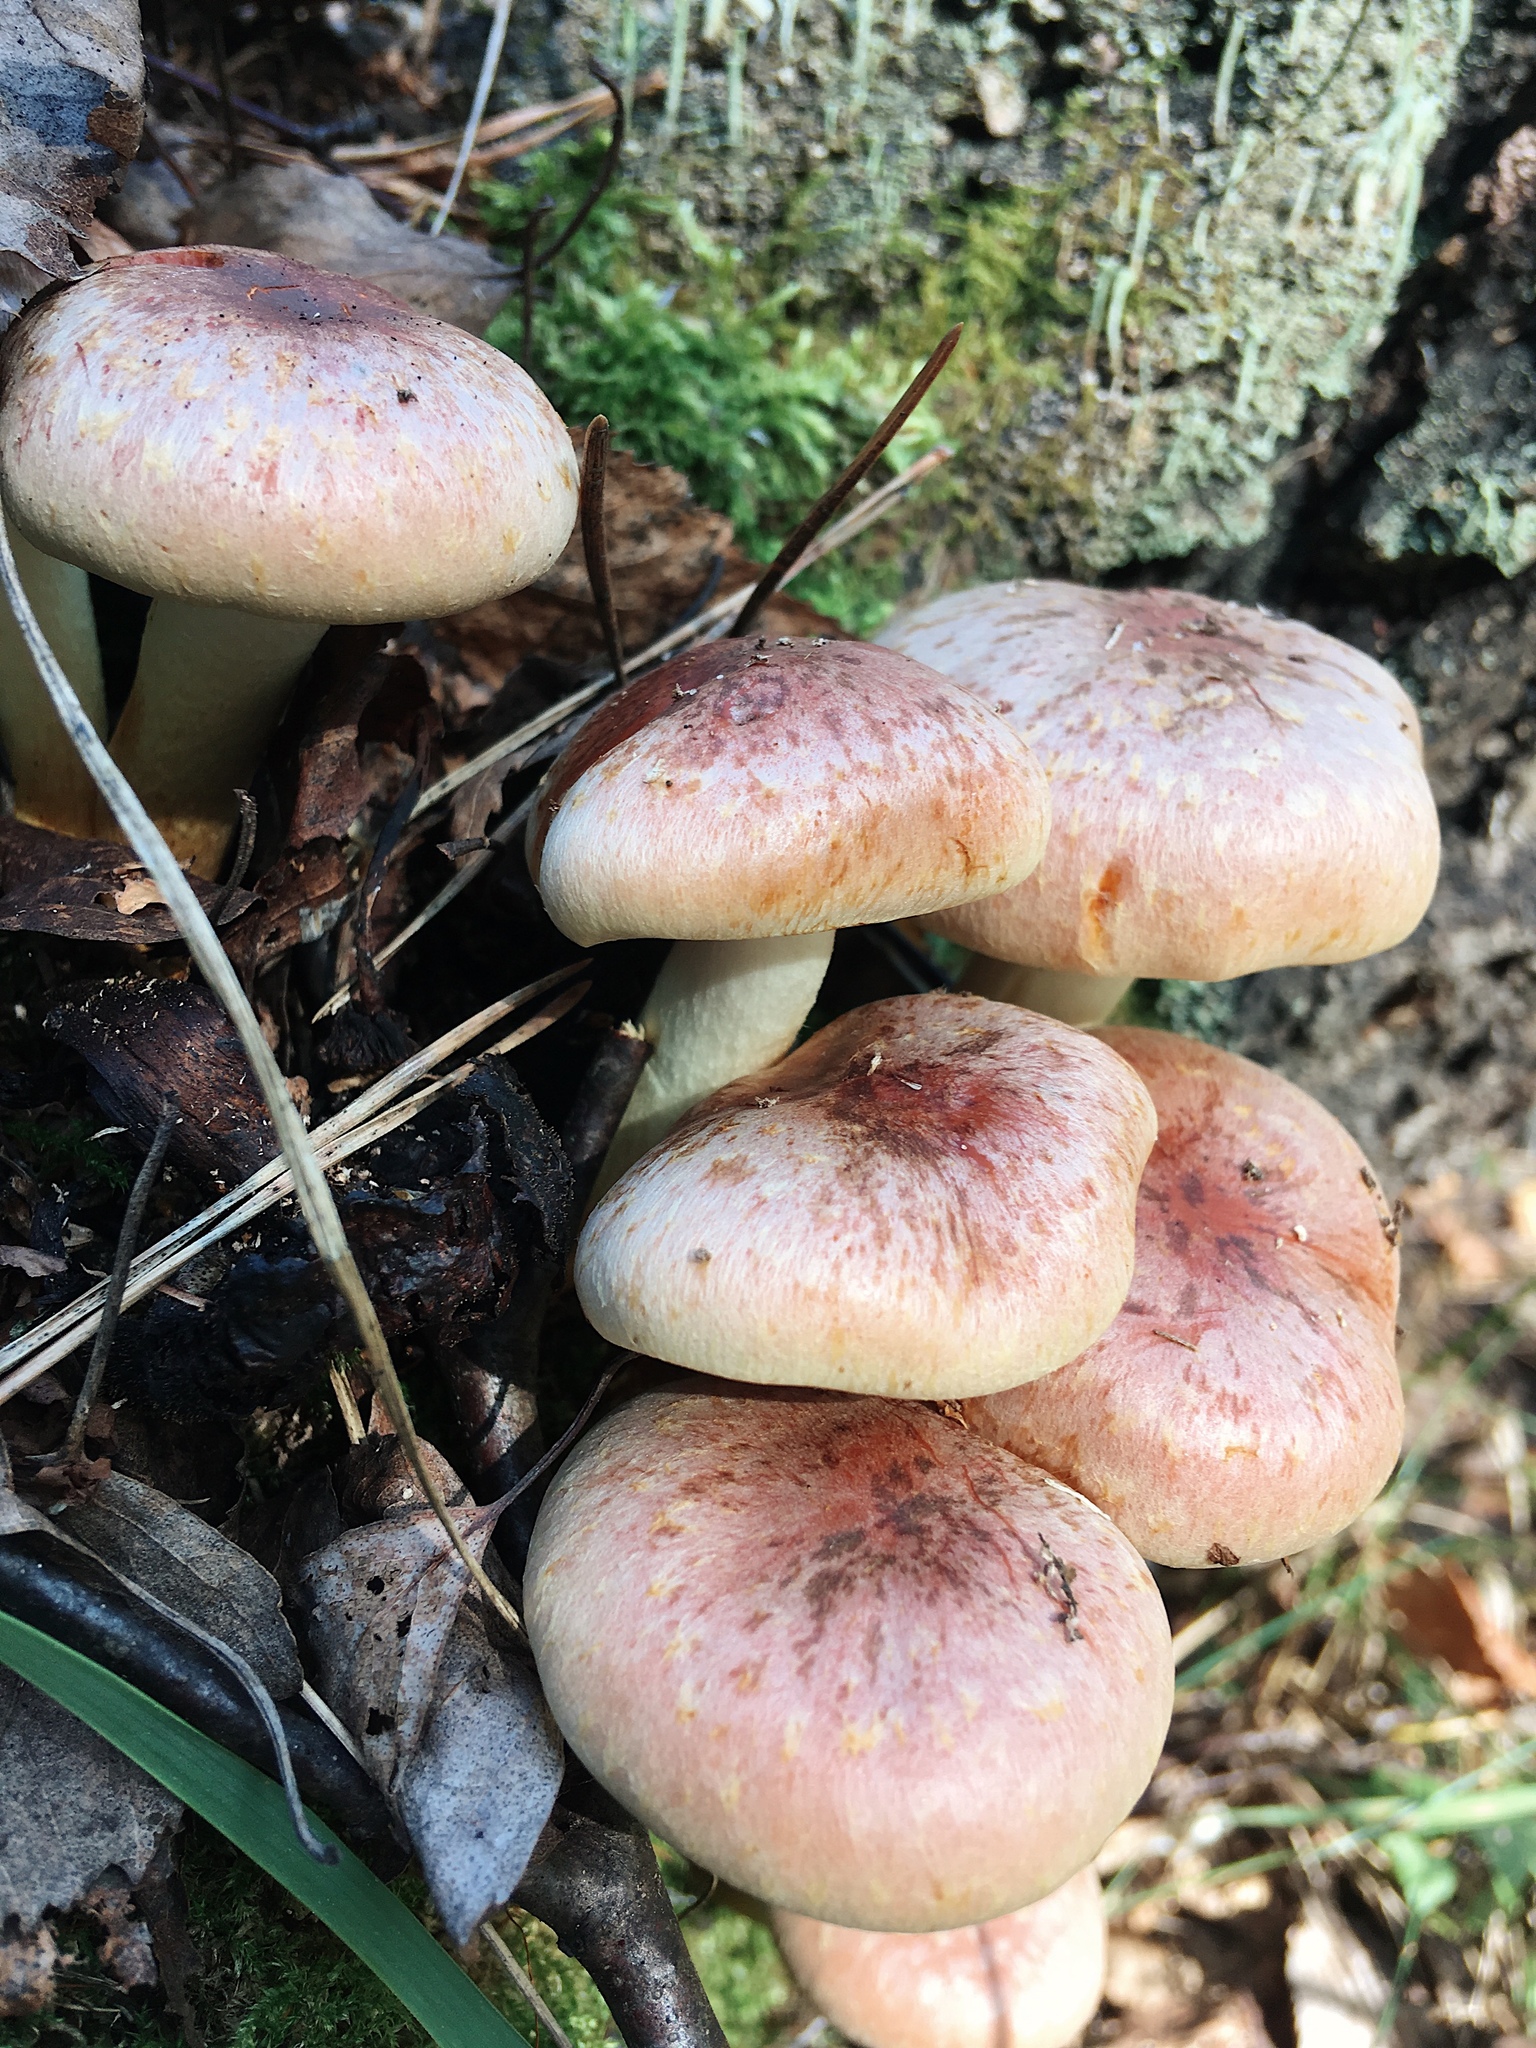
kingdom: Fungi
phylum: Basidiomycota
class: Agaricomycetes
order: Agaricales
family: Strophariaceae
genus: Hypholoma
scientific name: Hypholoma lateritium
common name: Brick caps
